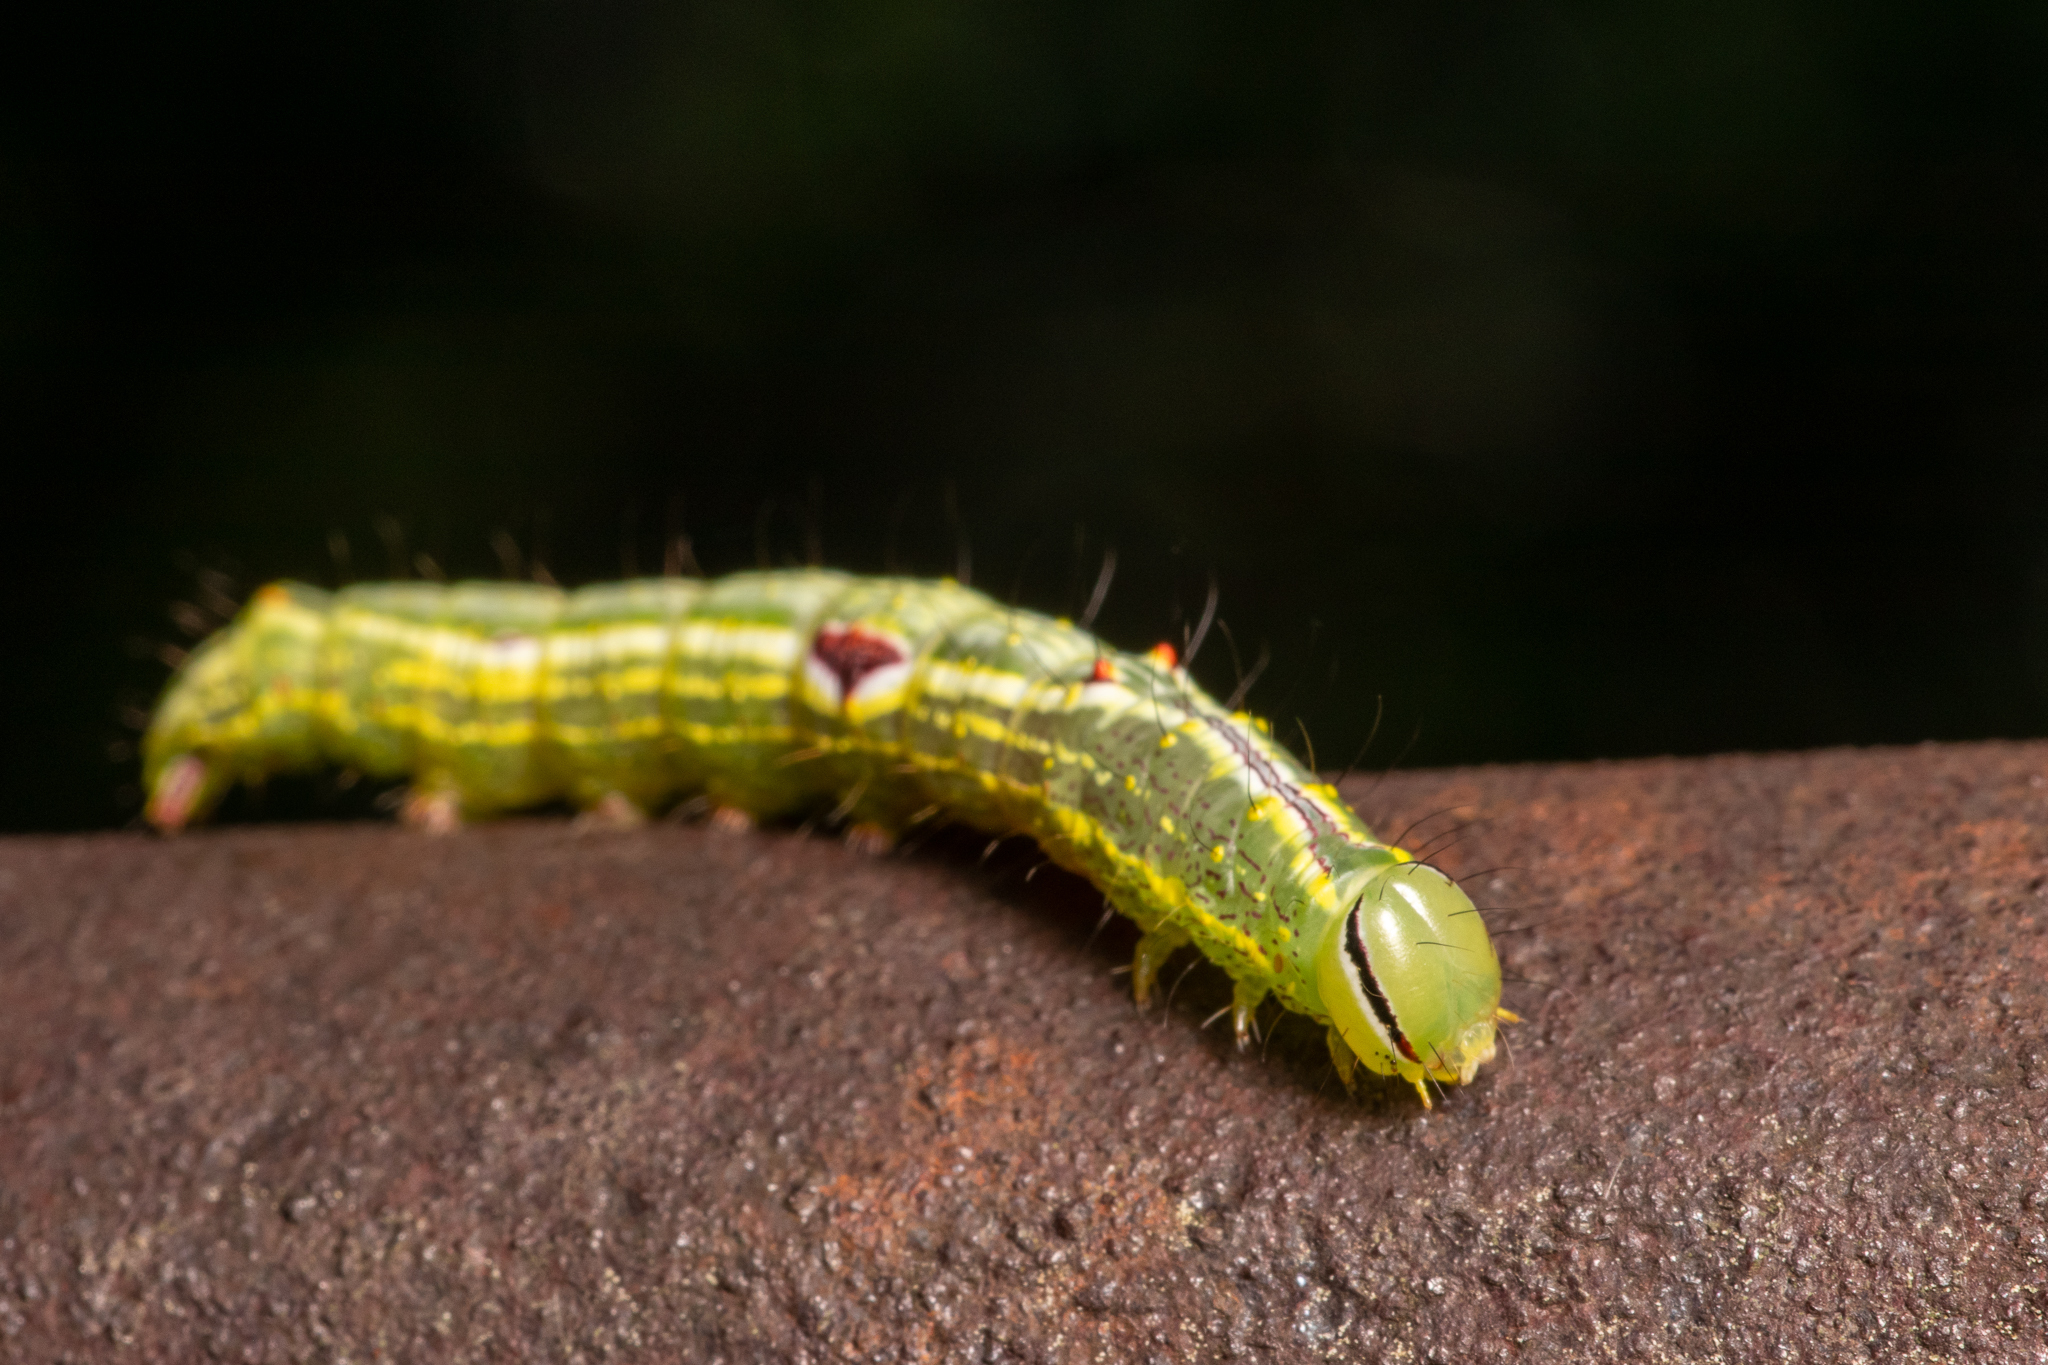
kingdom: Animalia
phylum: Arthropoda
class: Insecta
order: Lepidoptera
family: Notodontidae
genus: Lochmaeus
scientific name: Lochmaeus bilineata
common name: Double-lined prominent
